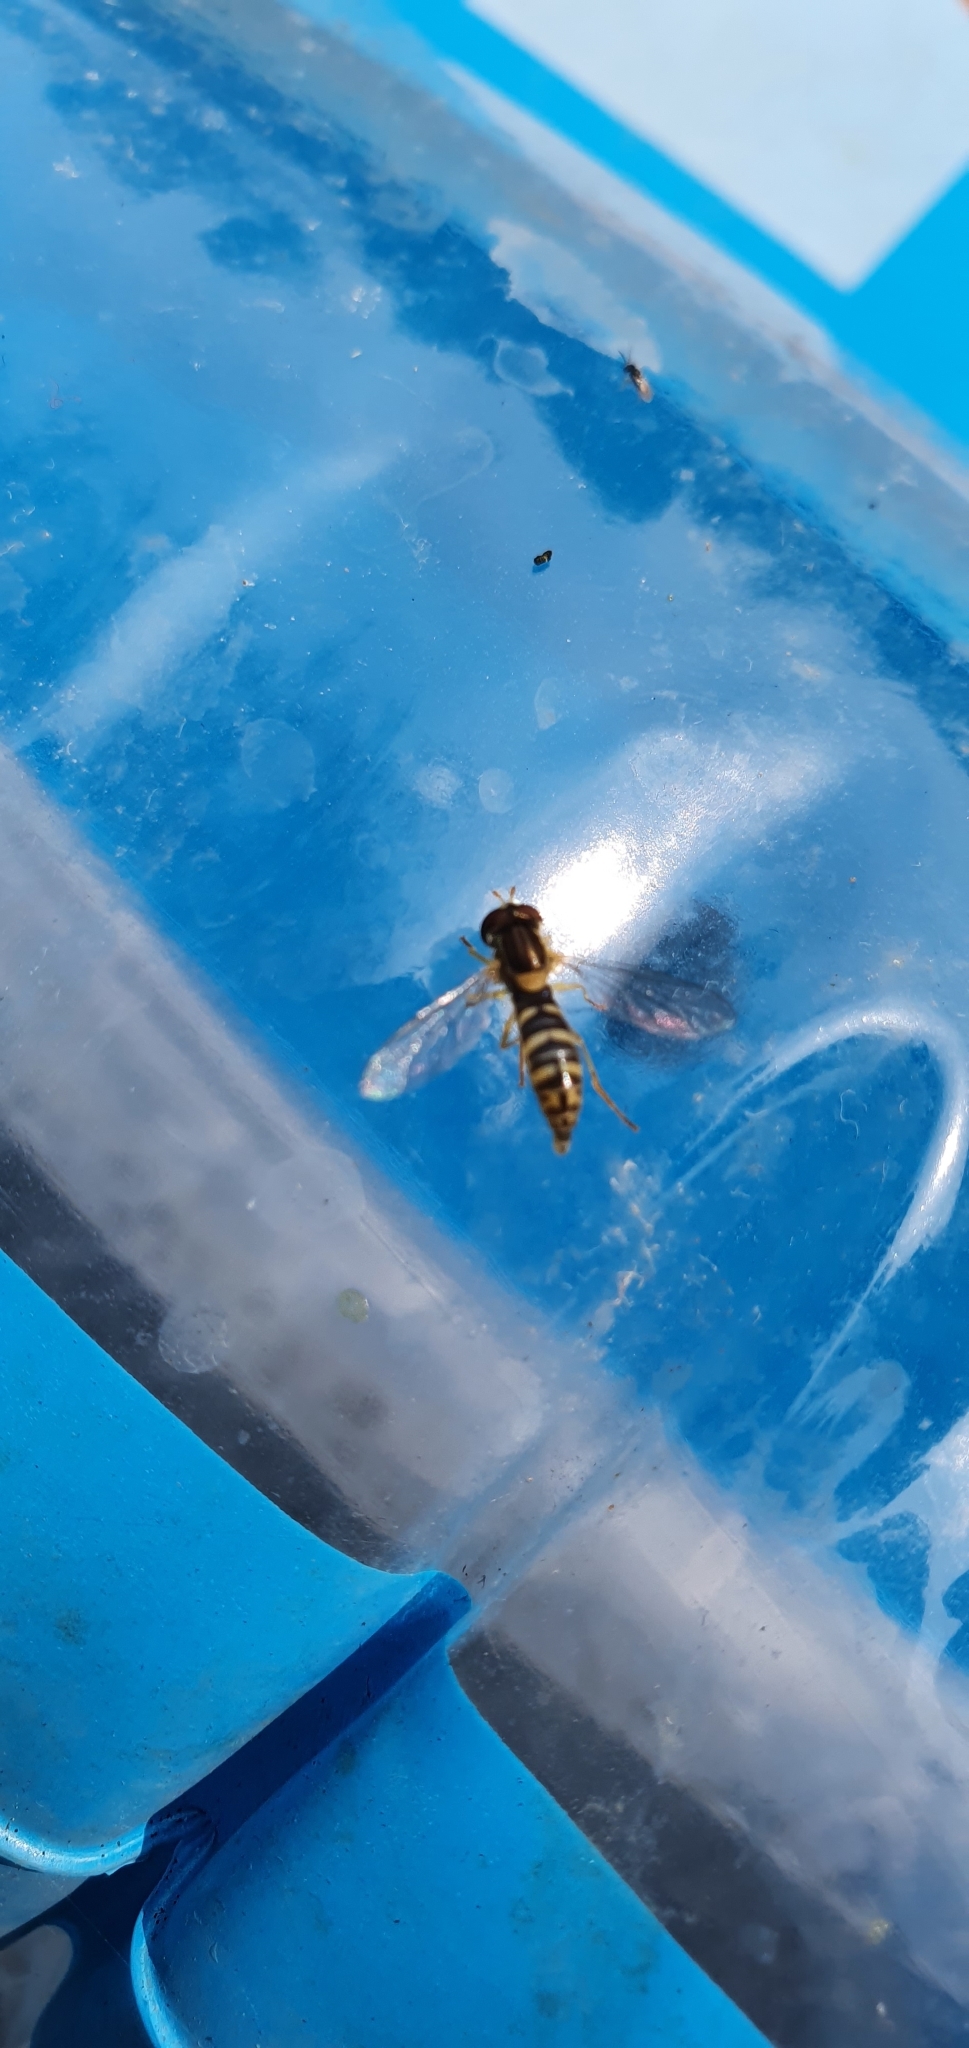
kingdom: Animalia
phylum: Arthropoda
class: Insecta
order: Diptera
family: Syrphidae
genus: Sphaerophoria
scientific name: Sphaerophoria
